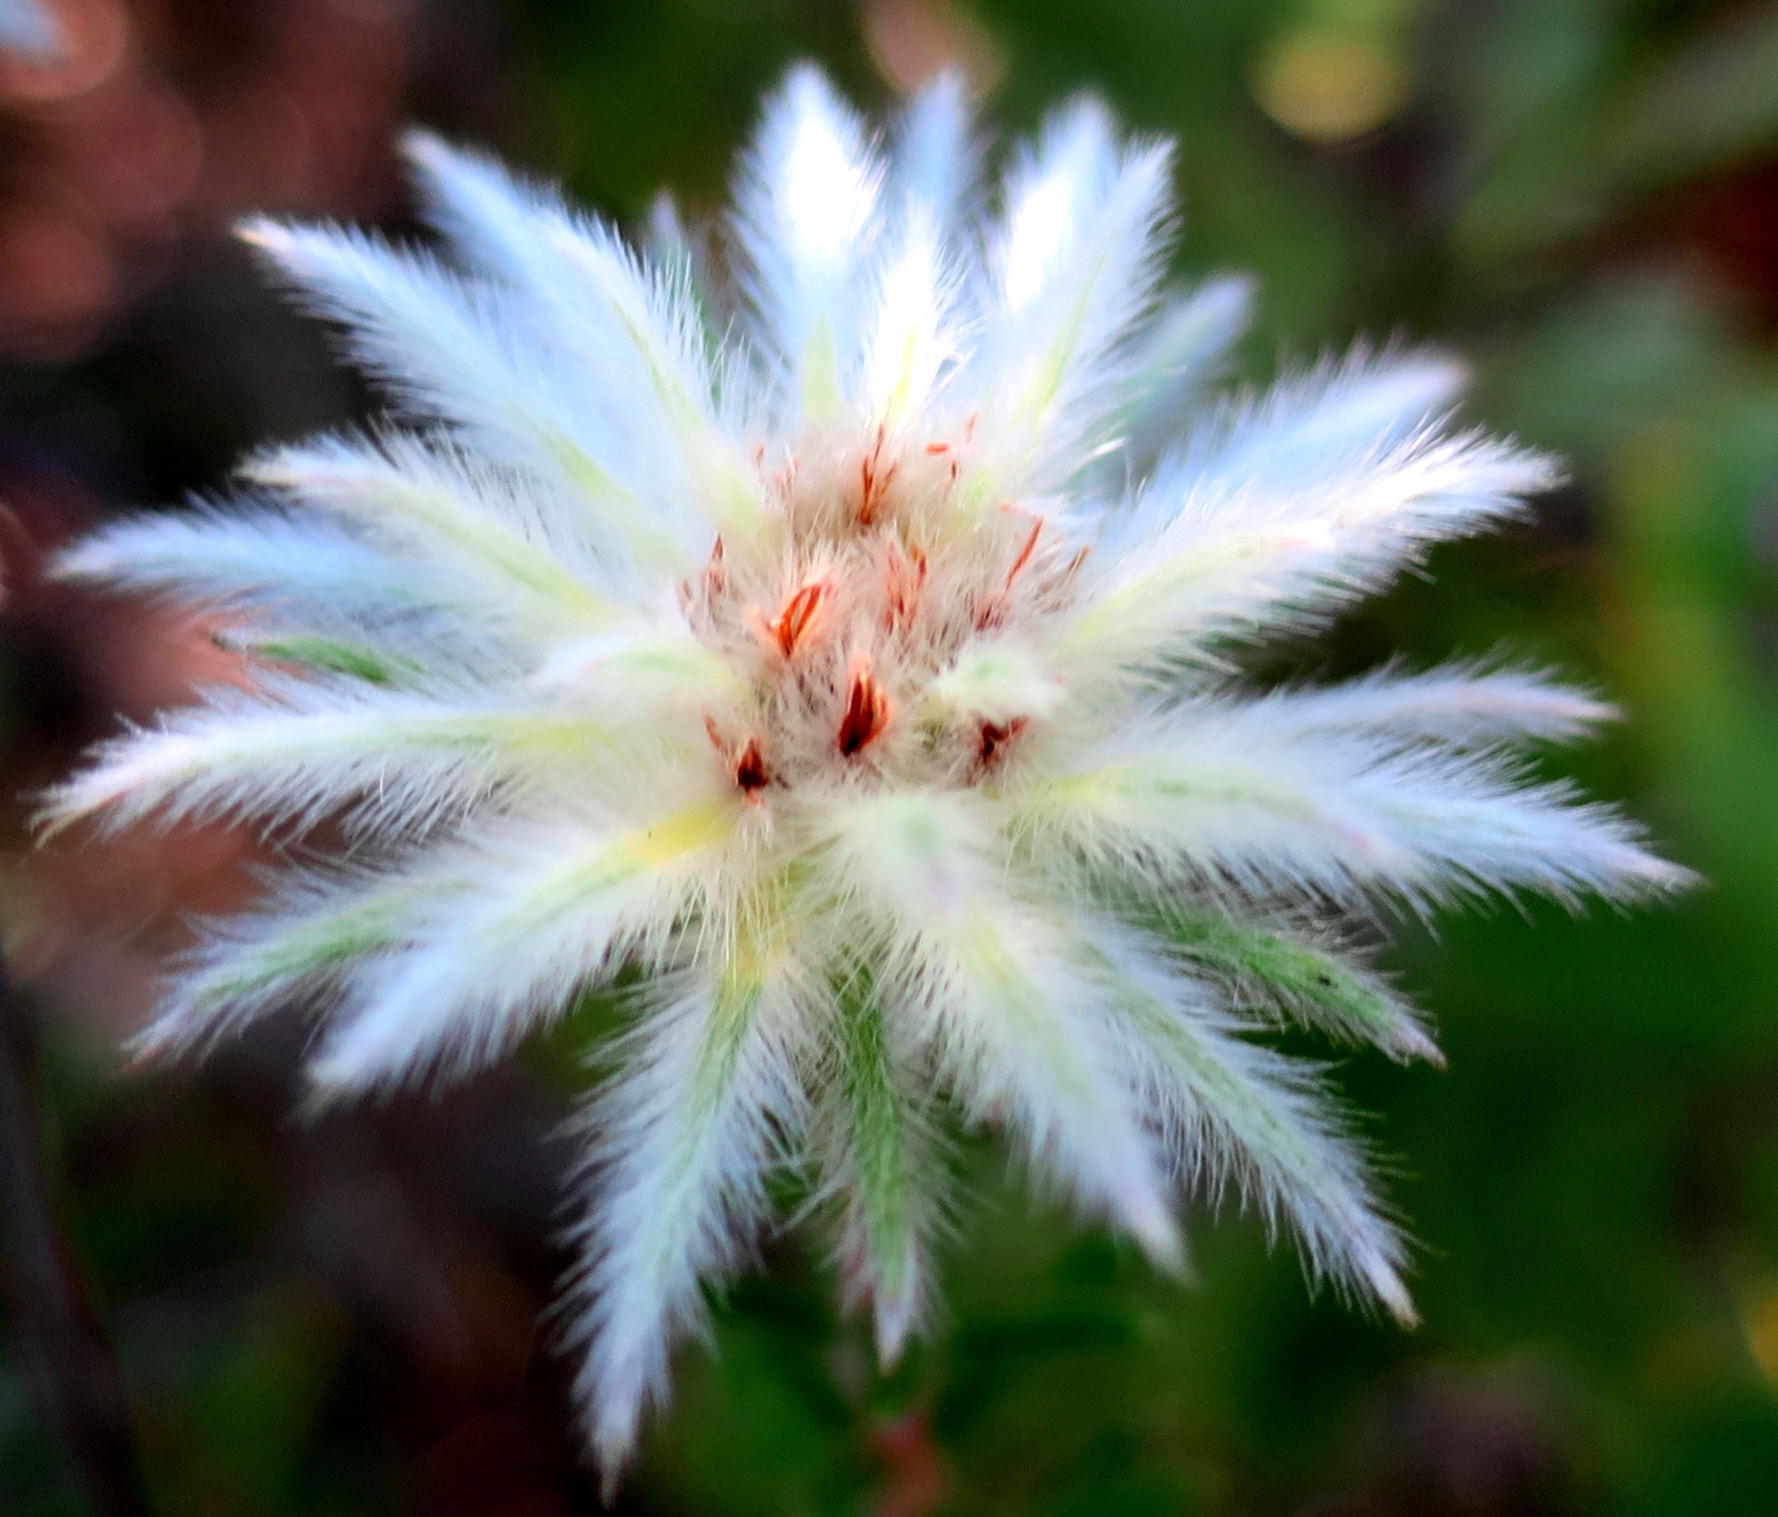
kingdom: Plantae
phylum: Tracheophyta
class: Magnoliopsida
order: Rosales
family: Rhamnaceae
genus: Phylica
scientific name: Phylica pubescens
